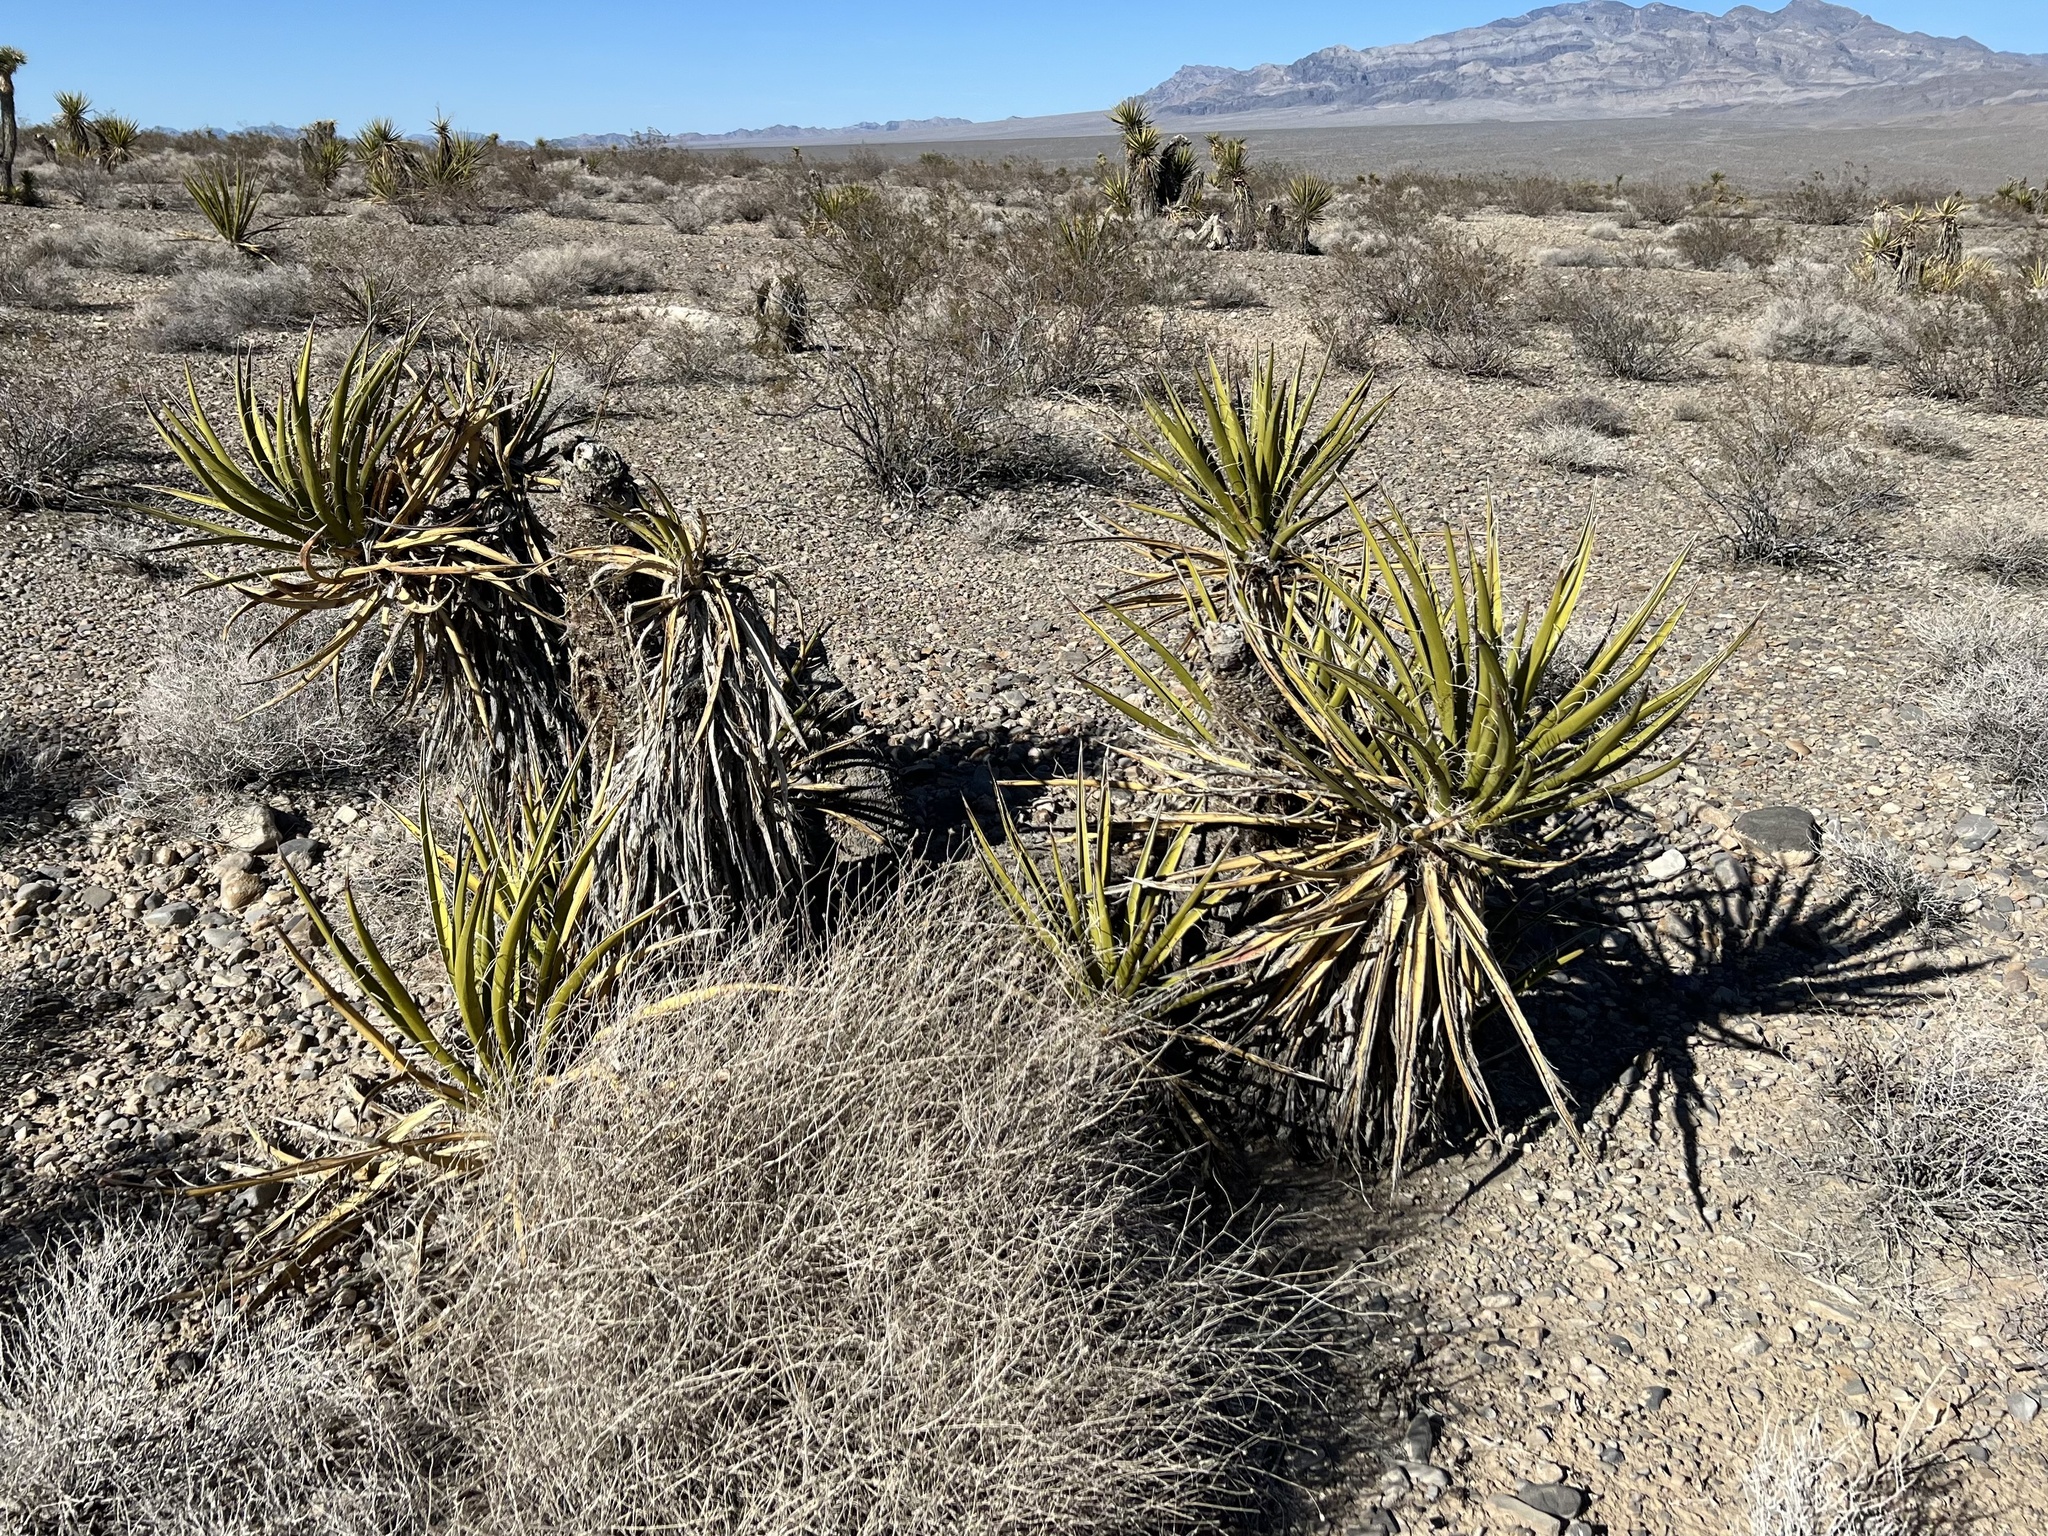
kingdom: Plantae
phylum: Tracheophyta
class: Liliopsida
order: Asparagales
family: Asparagaceae
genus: Yucca
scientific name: Yucca schidigera
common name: Mojave yucca
